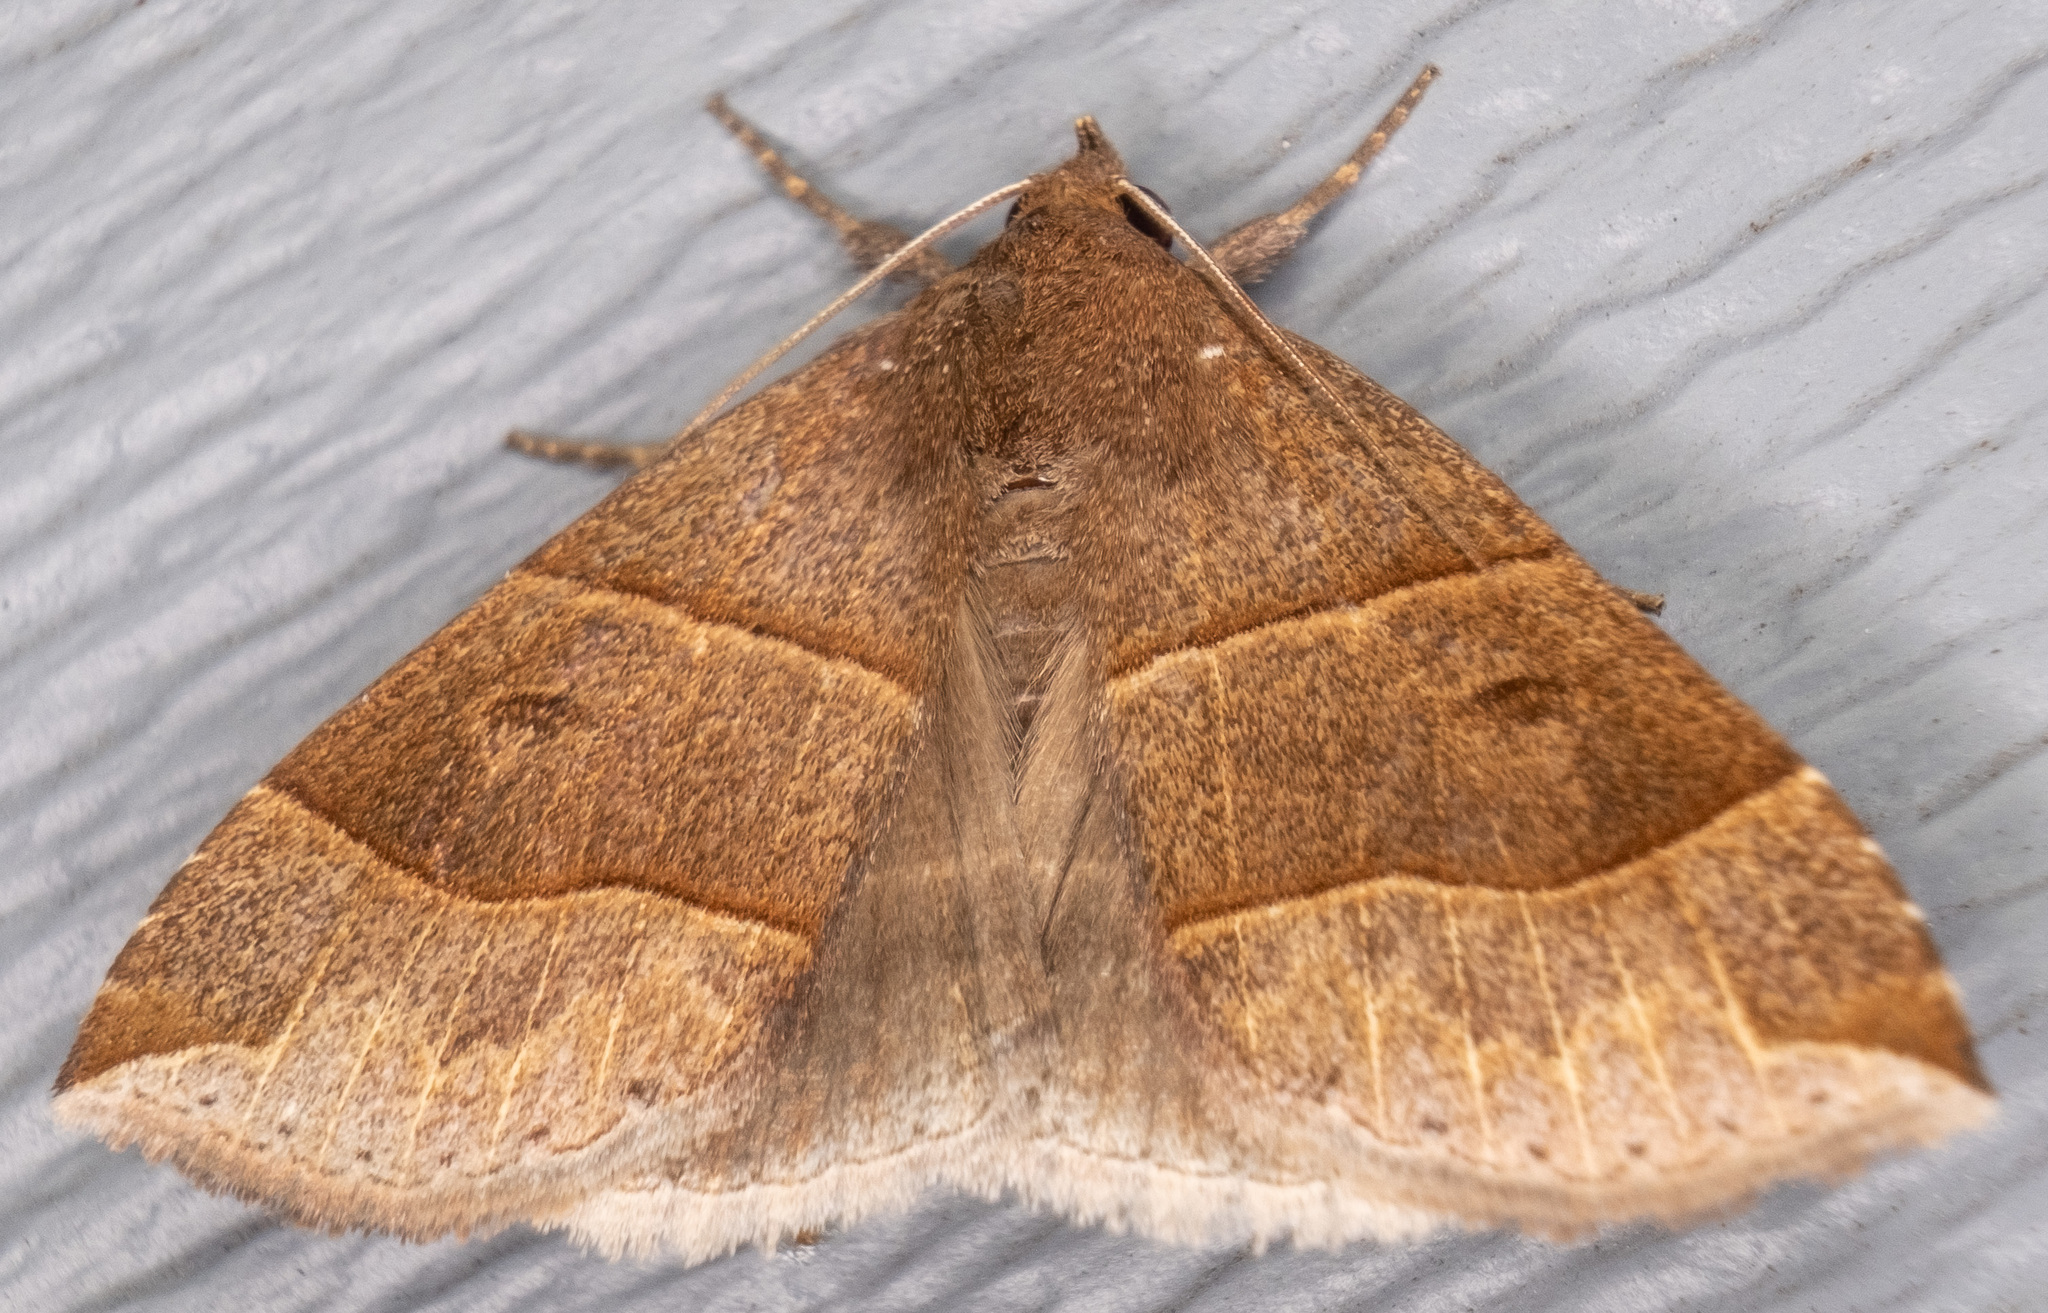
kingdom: Animalia
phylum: Arthropoda
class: Insecta
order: Lepidoptera
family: Erebidae
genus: Parallelia
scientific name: Parallelia bistriaris
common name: Maple looper moth
